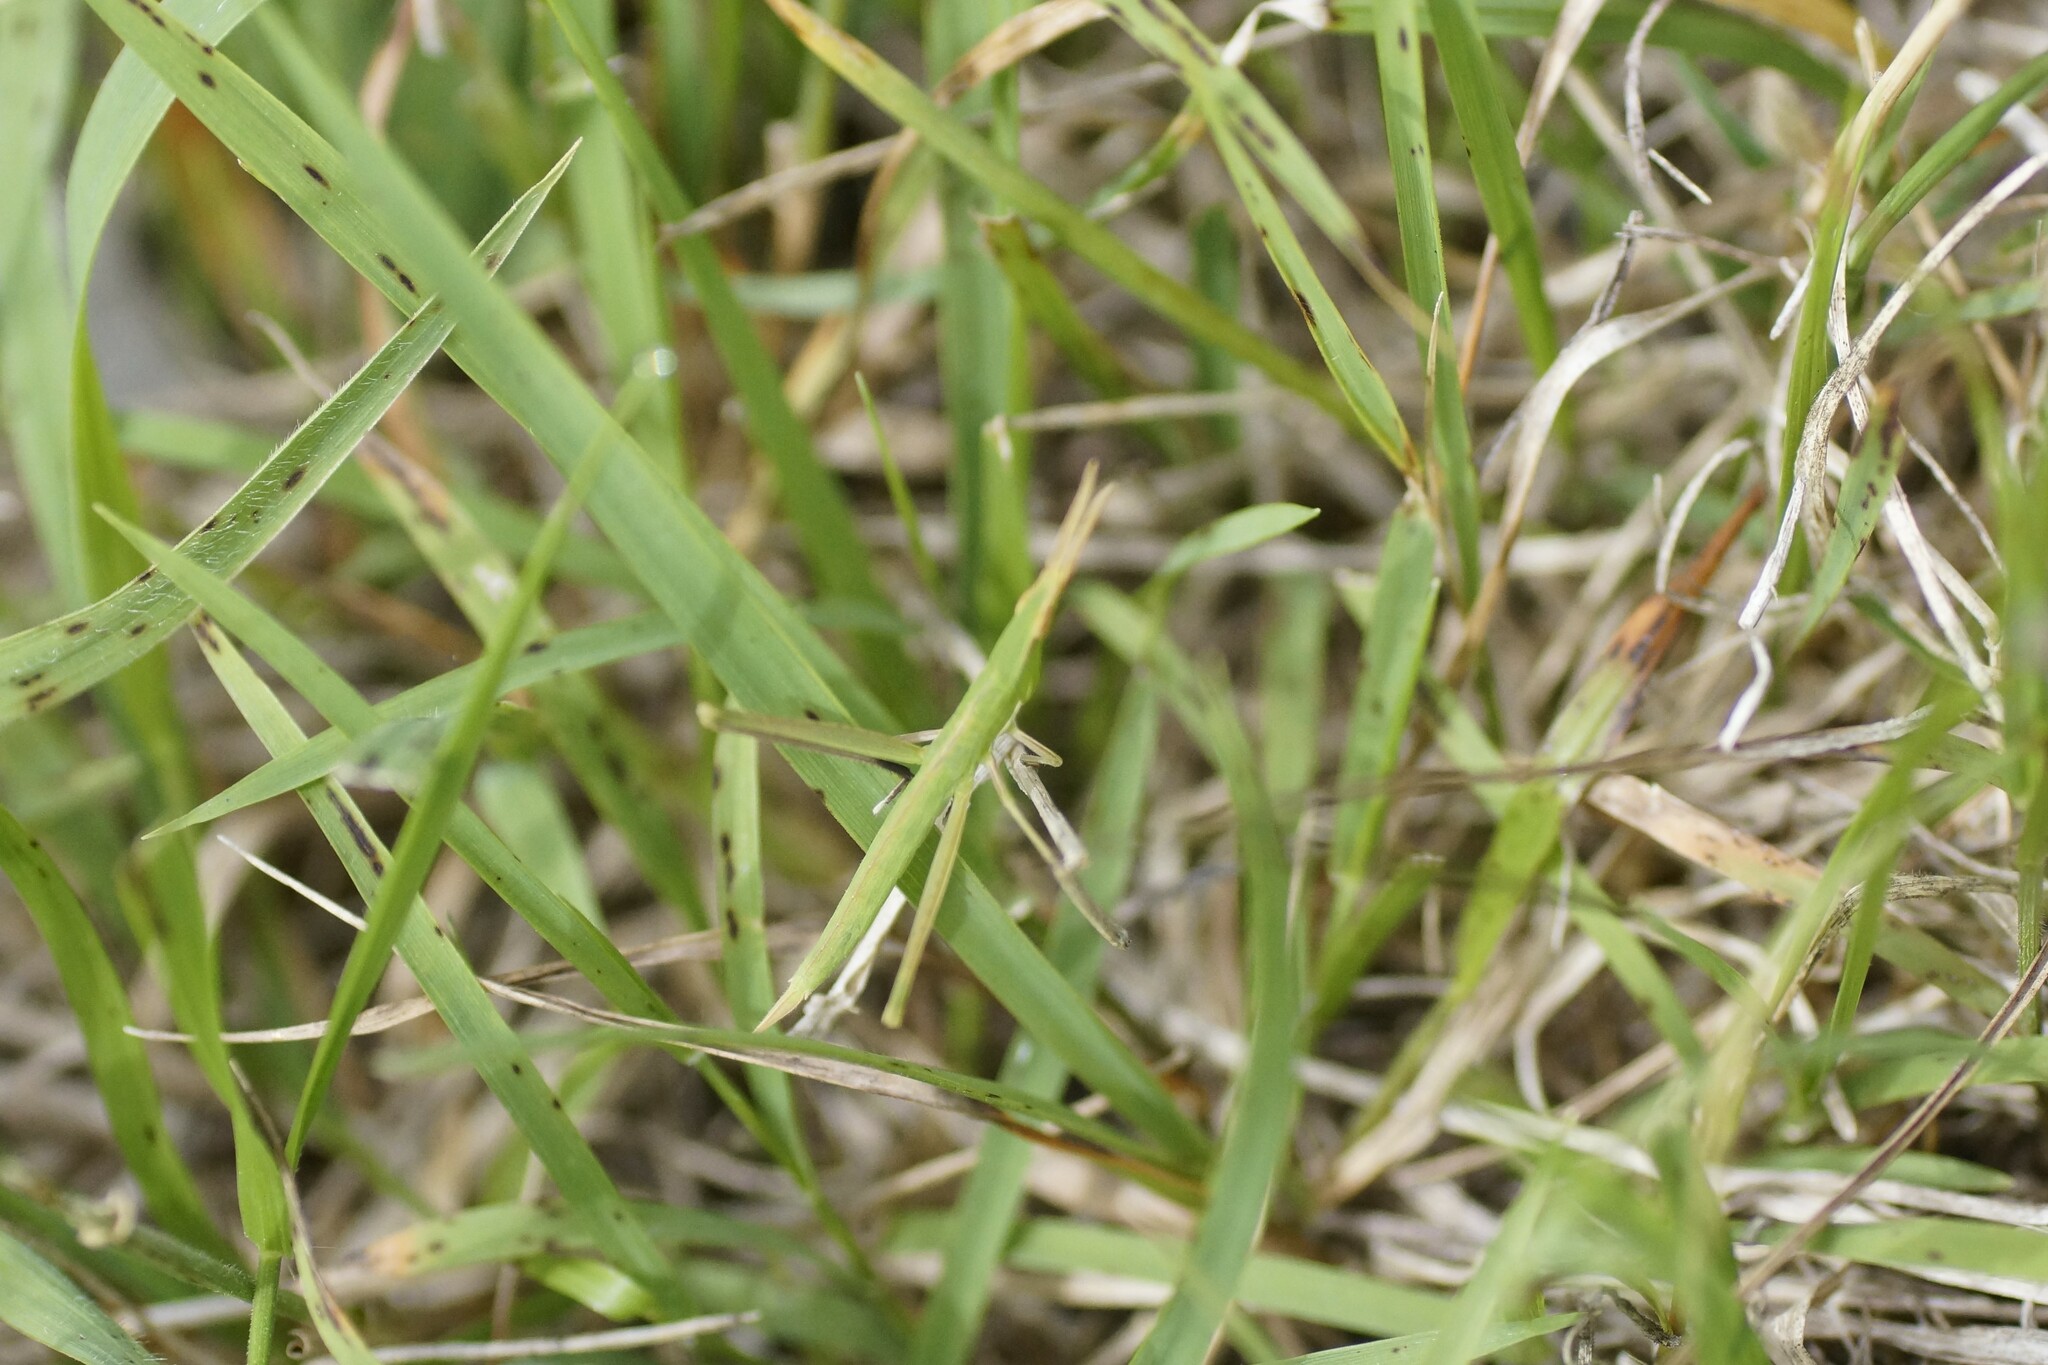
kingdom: Animalia
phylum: Arthropoda
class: Insecta
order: Orthoptera
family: Acrididae
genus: Acrida
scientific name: Acrida conica
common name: Giant green slantface
